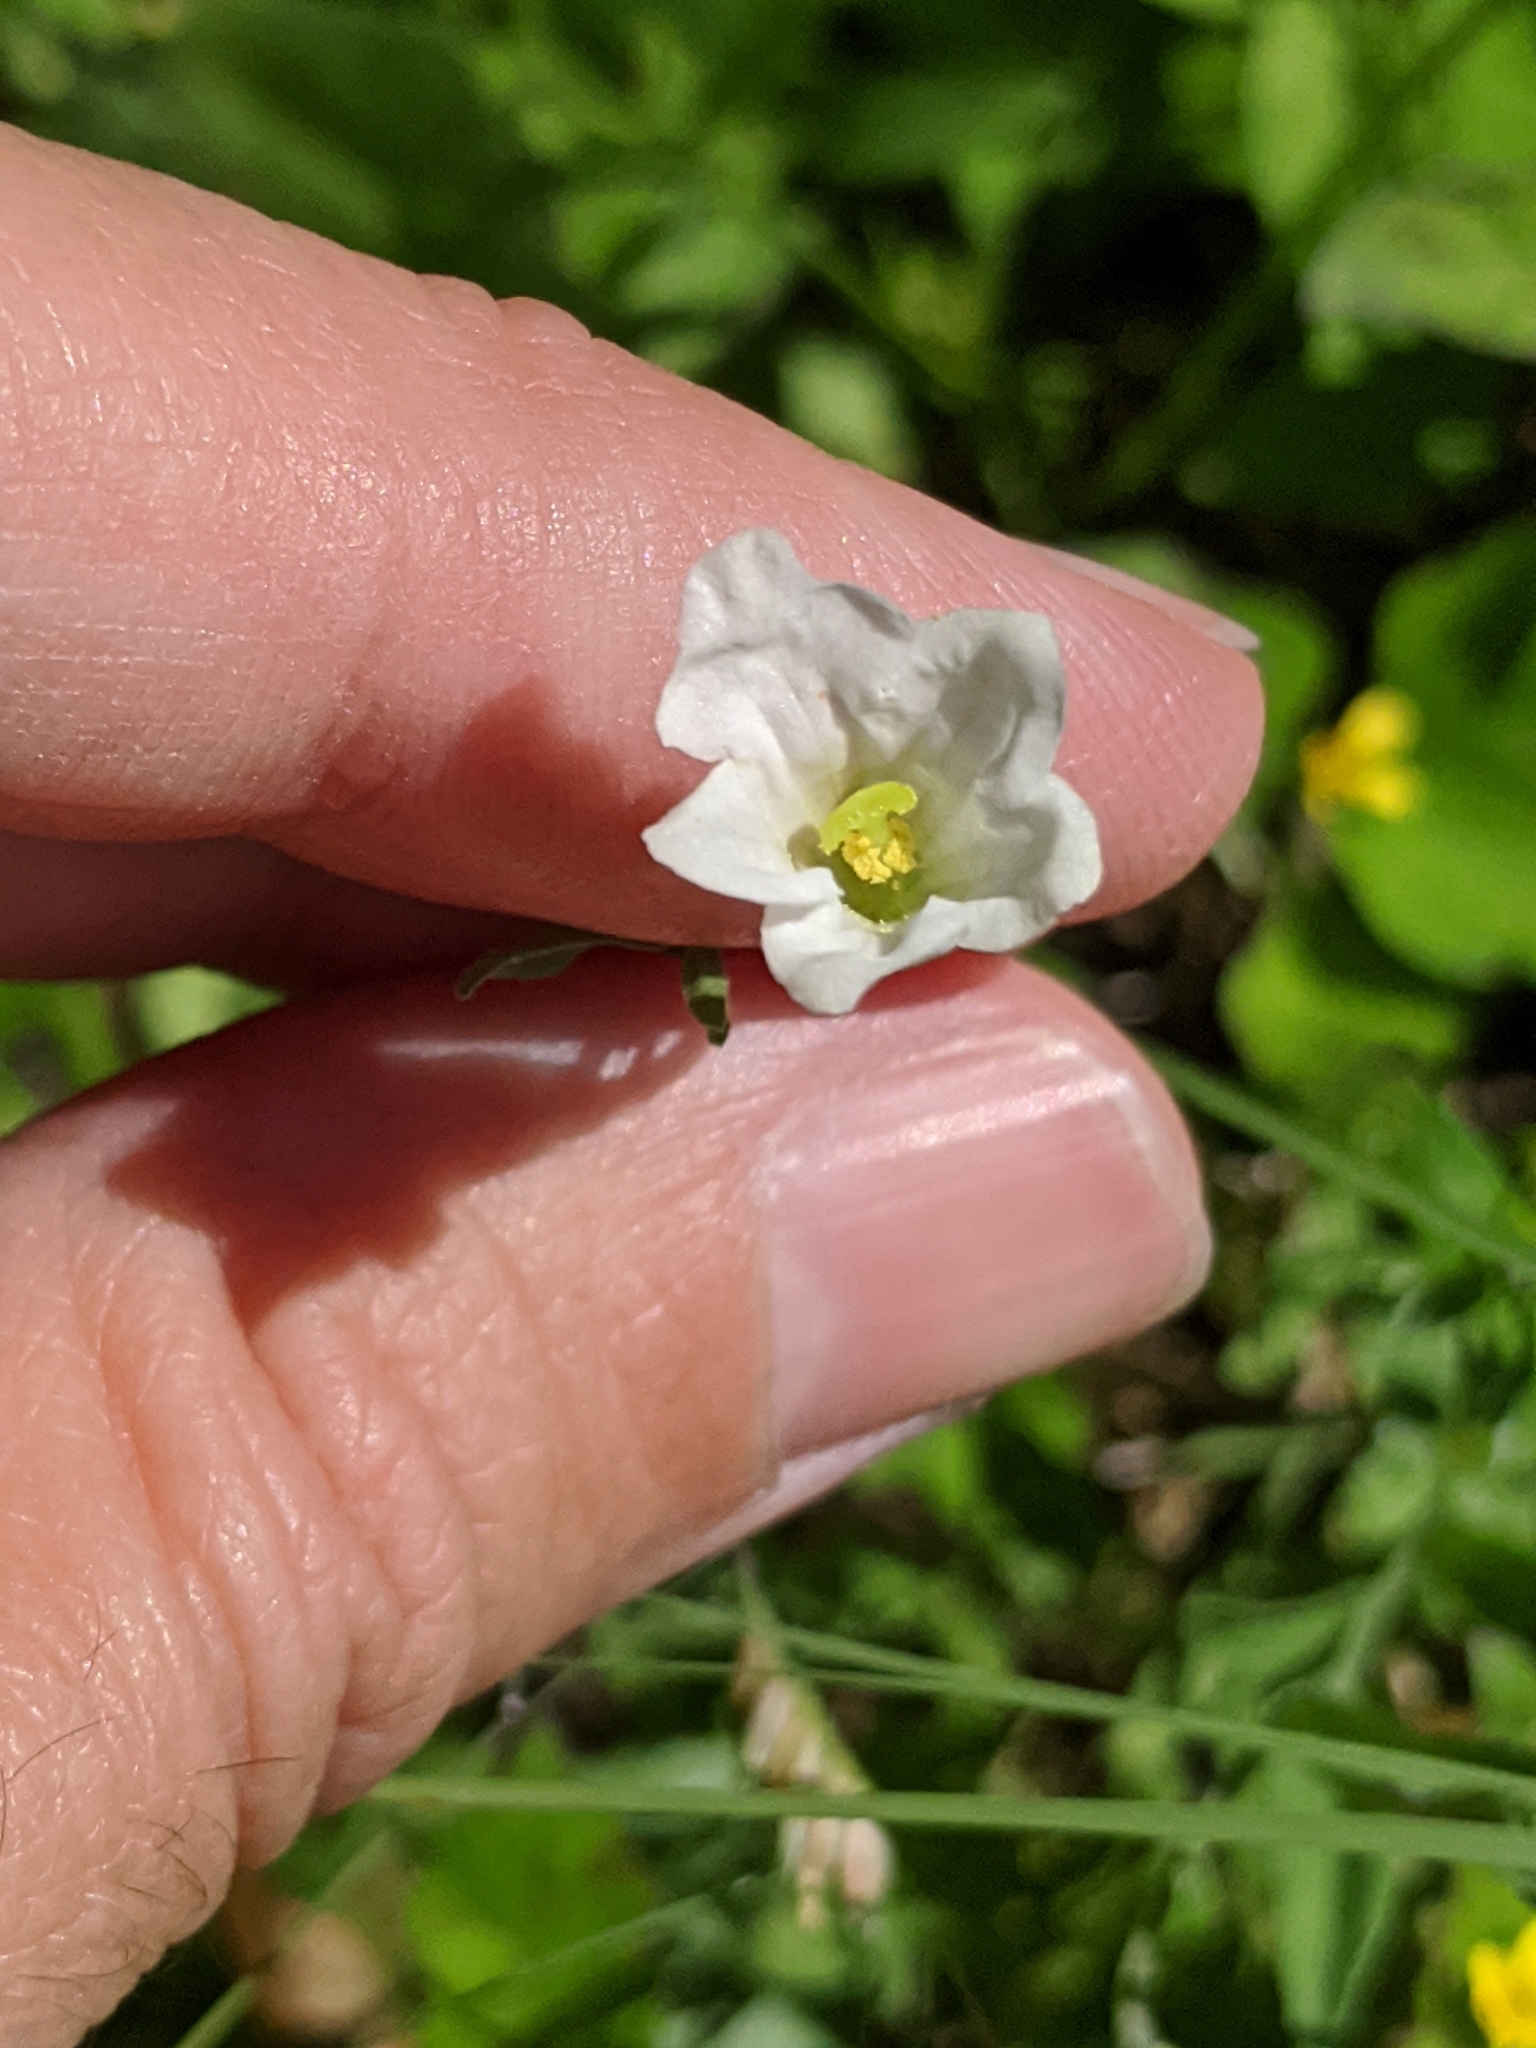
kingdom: Plantae
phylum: Tracheophyta
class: Magnoliopsida
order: Solanales
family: Solanaceae
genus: Salpiglossis
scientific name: Salpiglossis erecta
